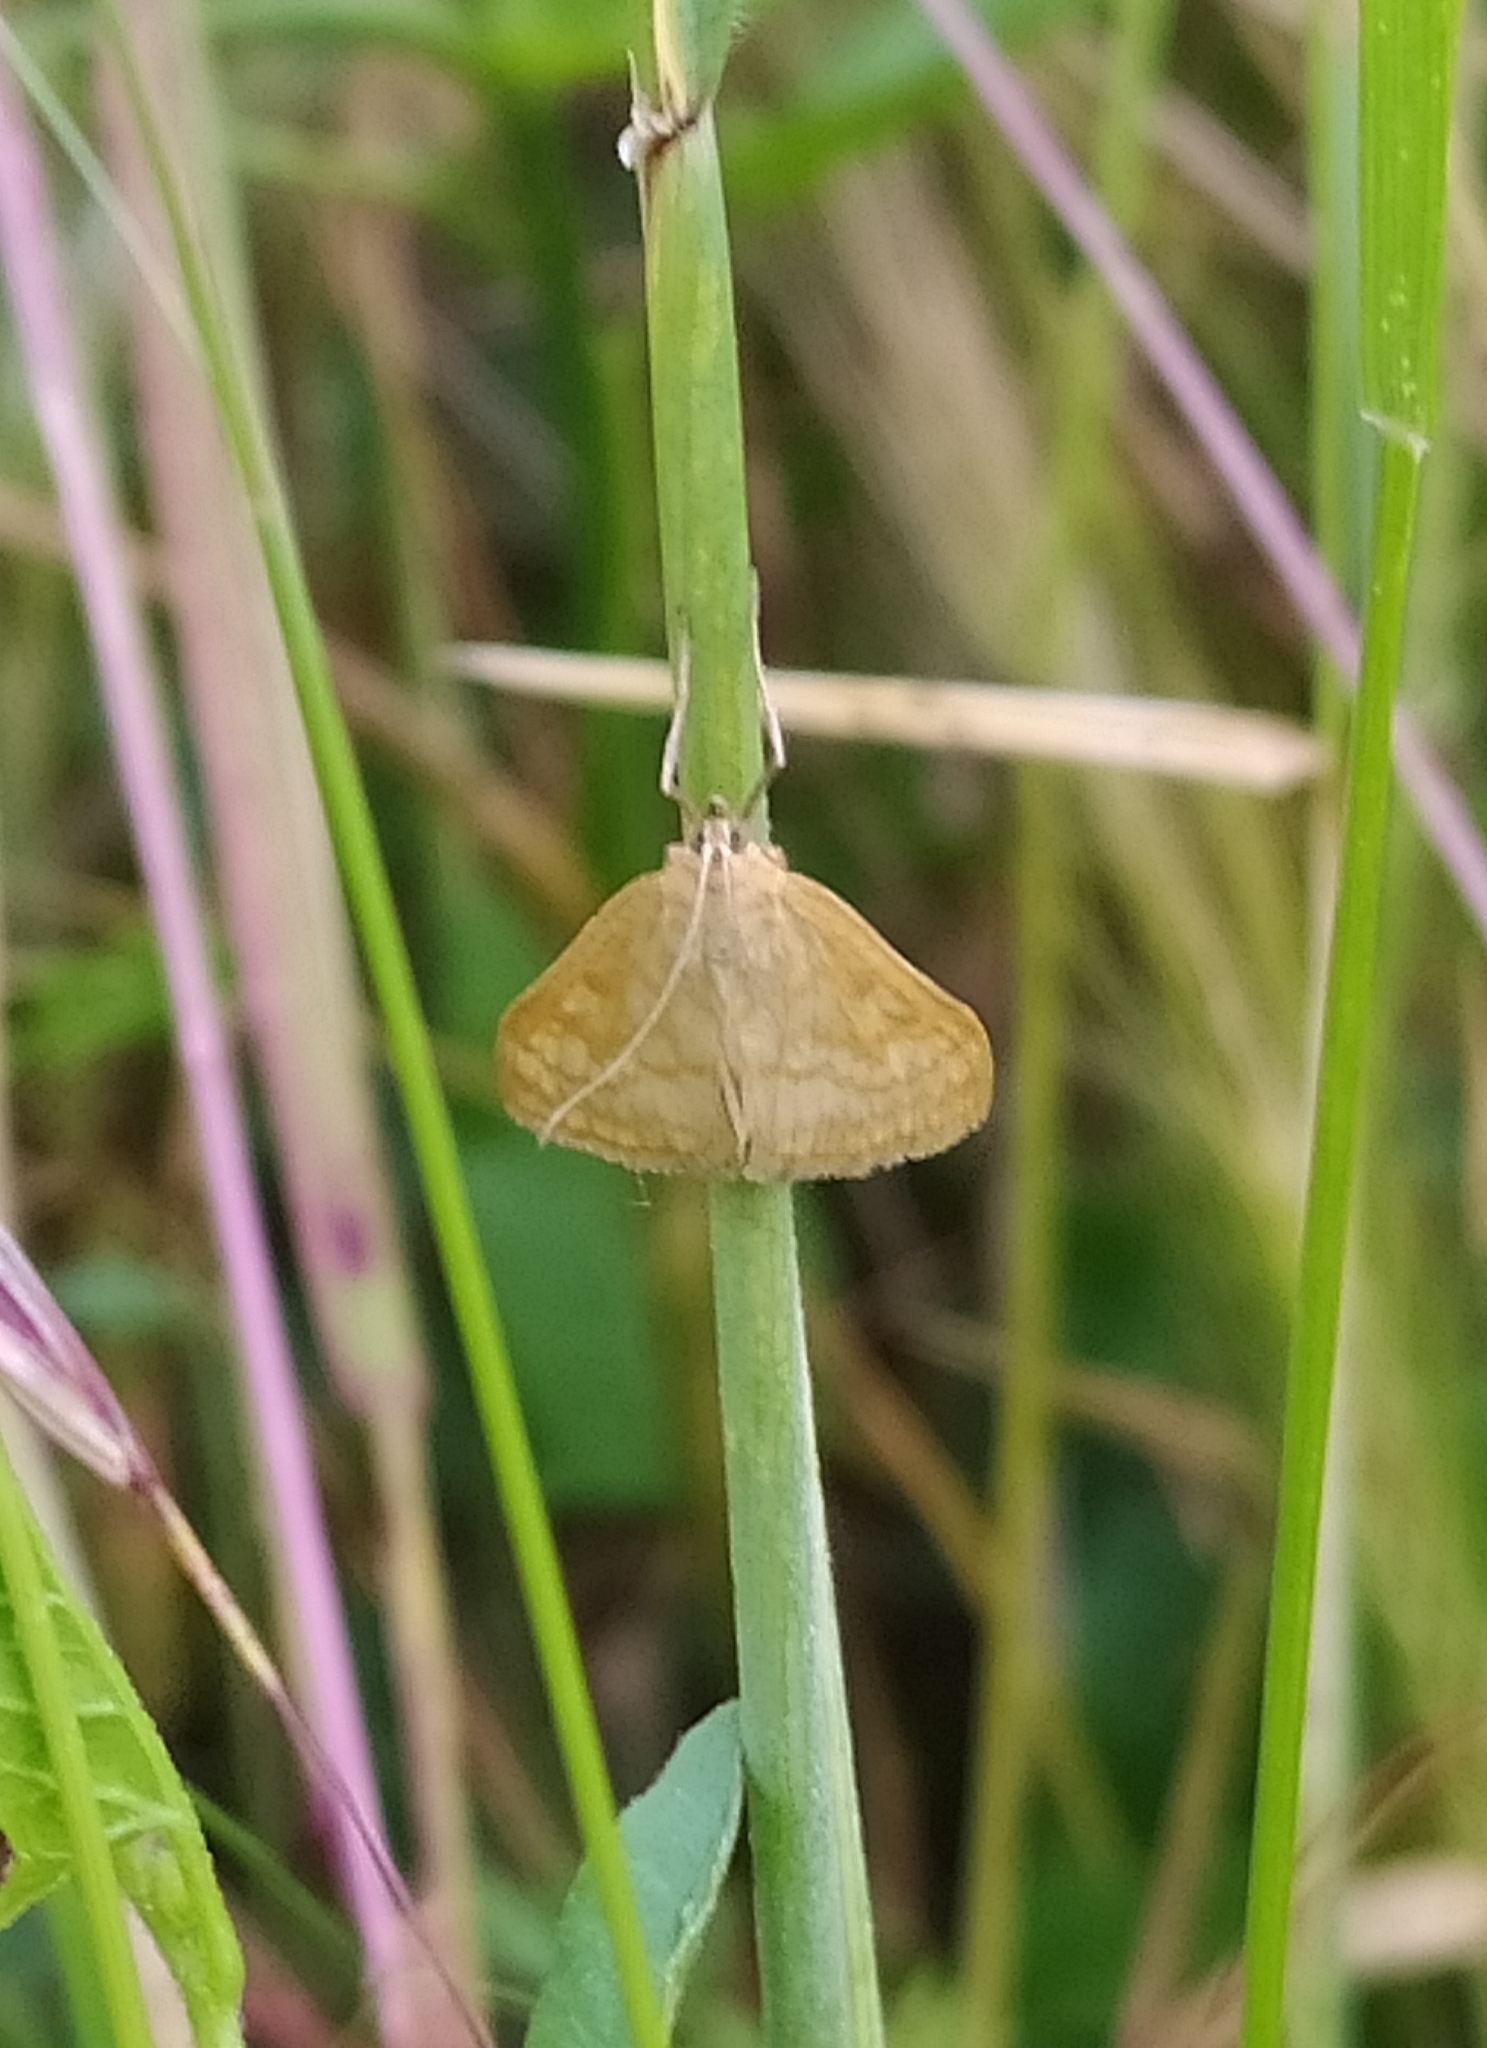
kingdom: Animalia
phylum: Arthropoda
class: Insecta
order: Lepidoptera
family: Crambidae
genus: Sitochroa
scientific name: Sitochroa verticalis
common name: Lesser pearl
